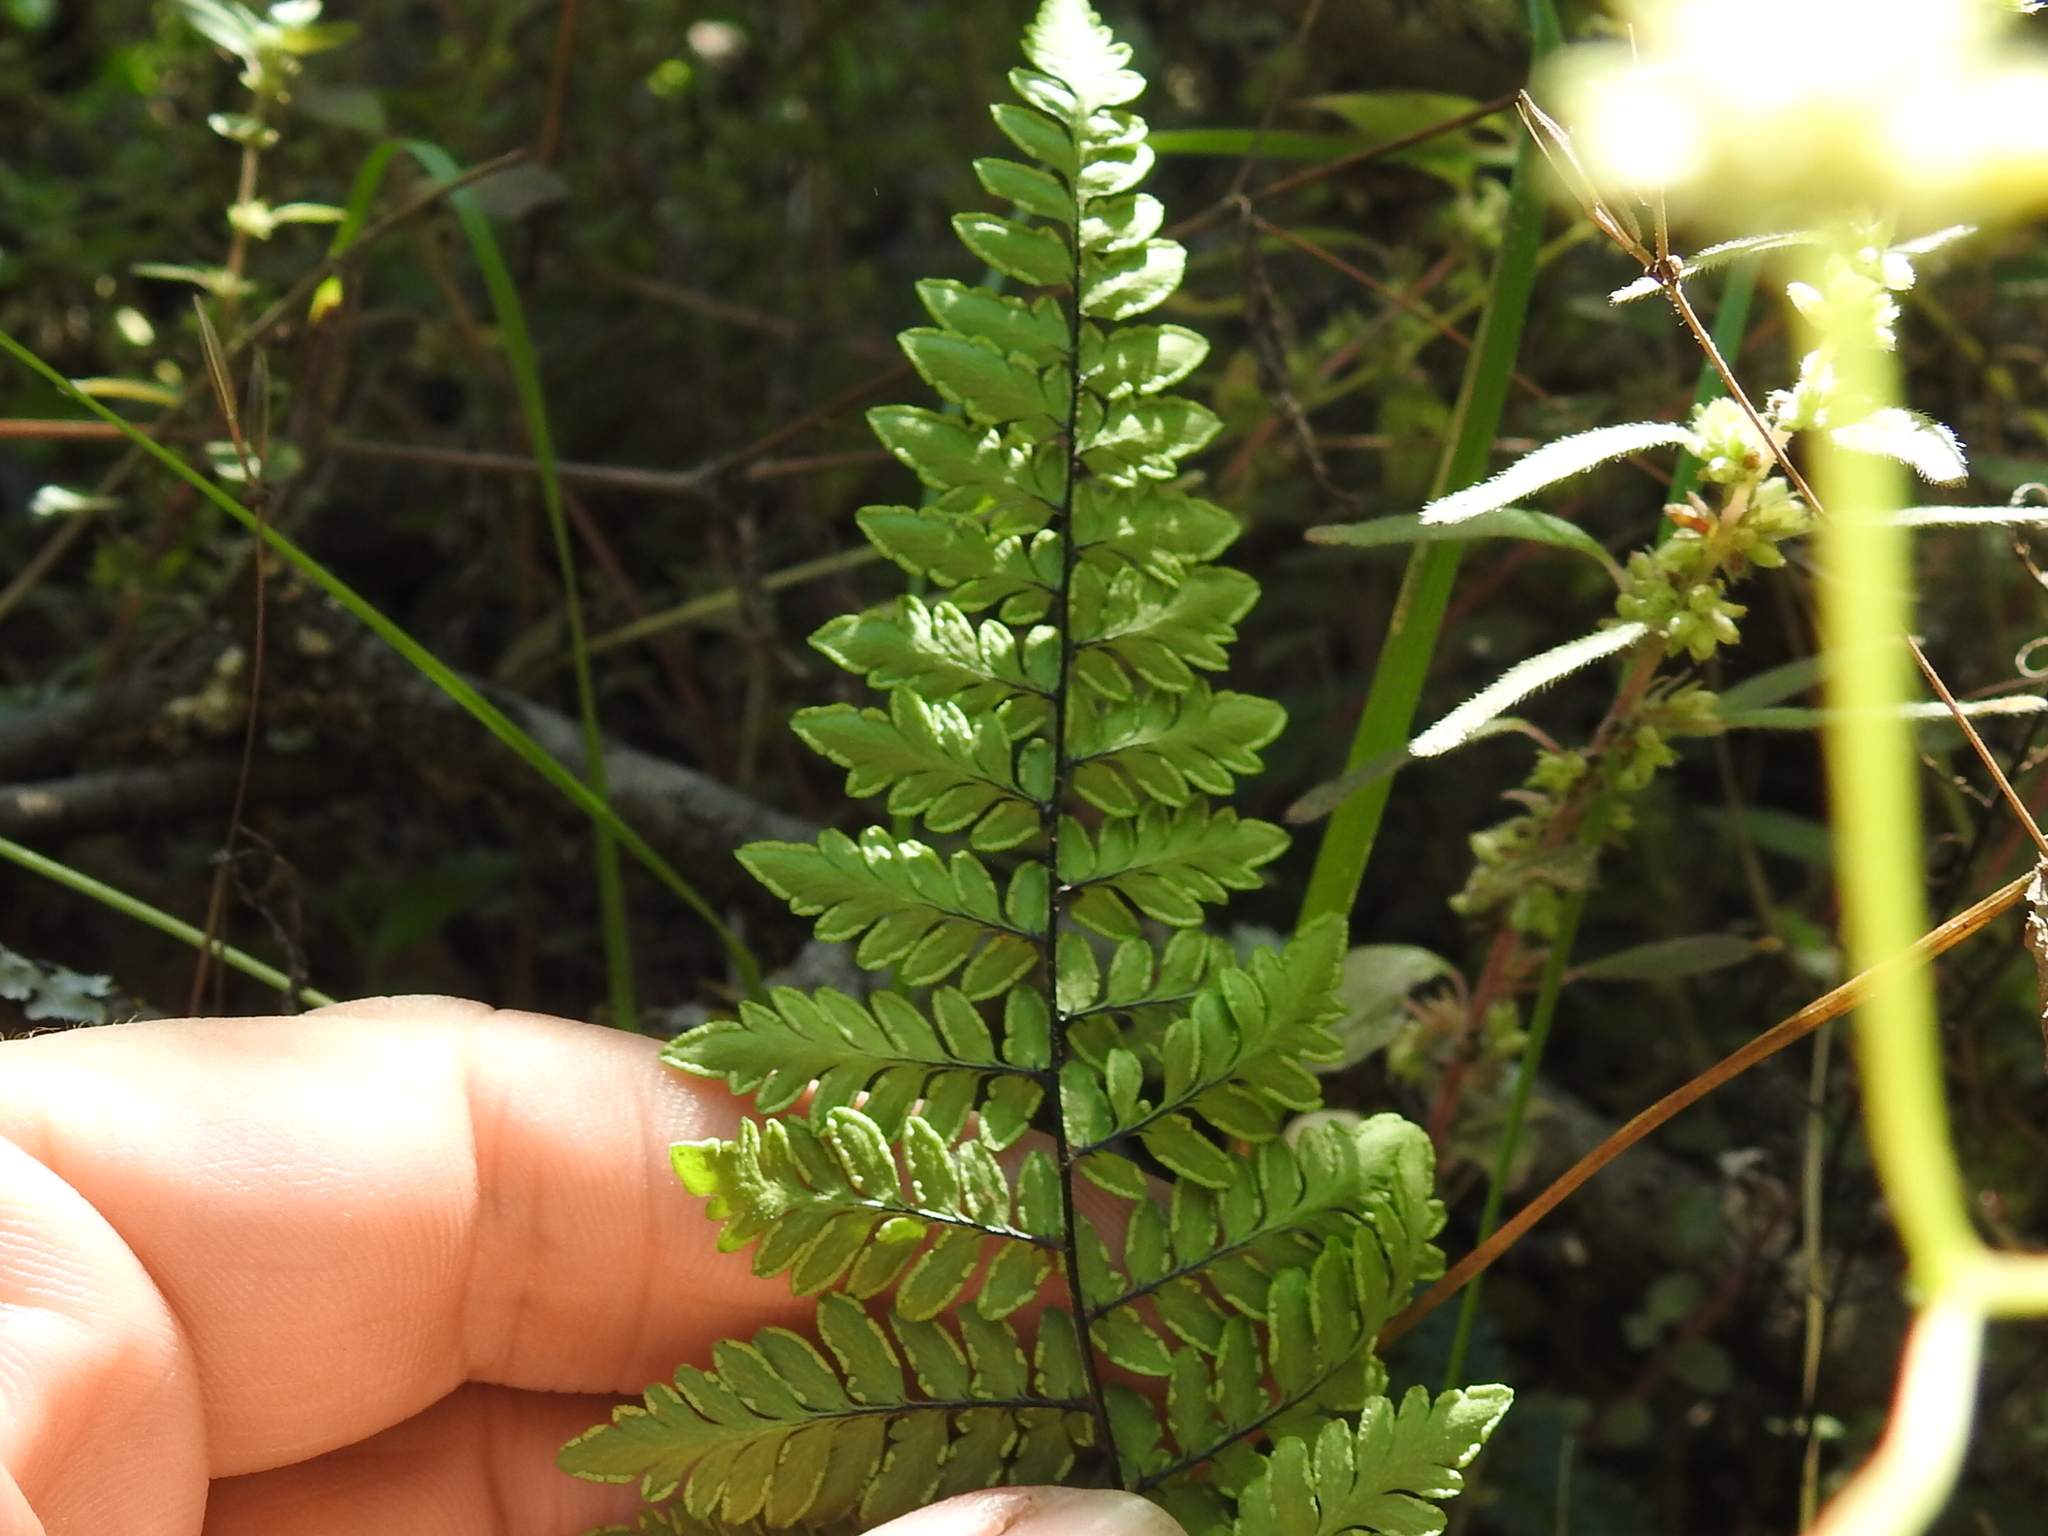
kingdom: Plantae
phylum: Tracheophyta
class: Polypodiopsida
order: Polypodiales
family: Pteridaceae
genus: Myriopteris
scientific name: Myriopteris alabamensis
